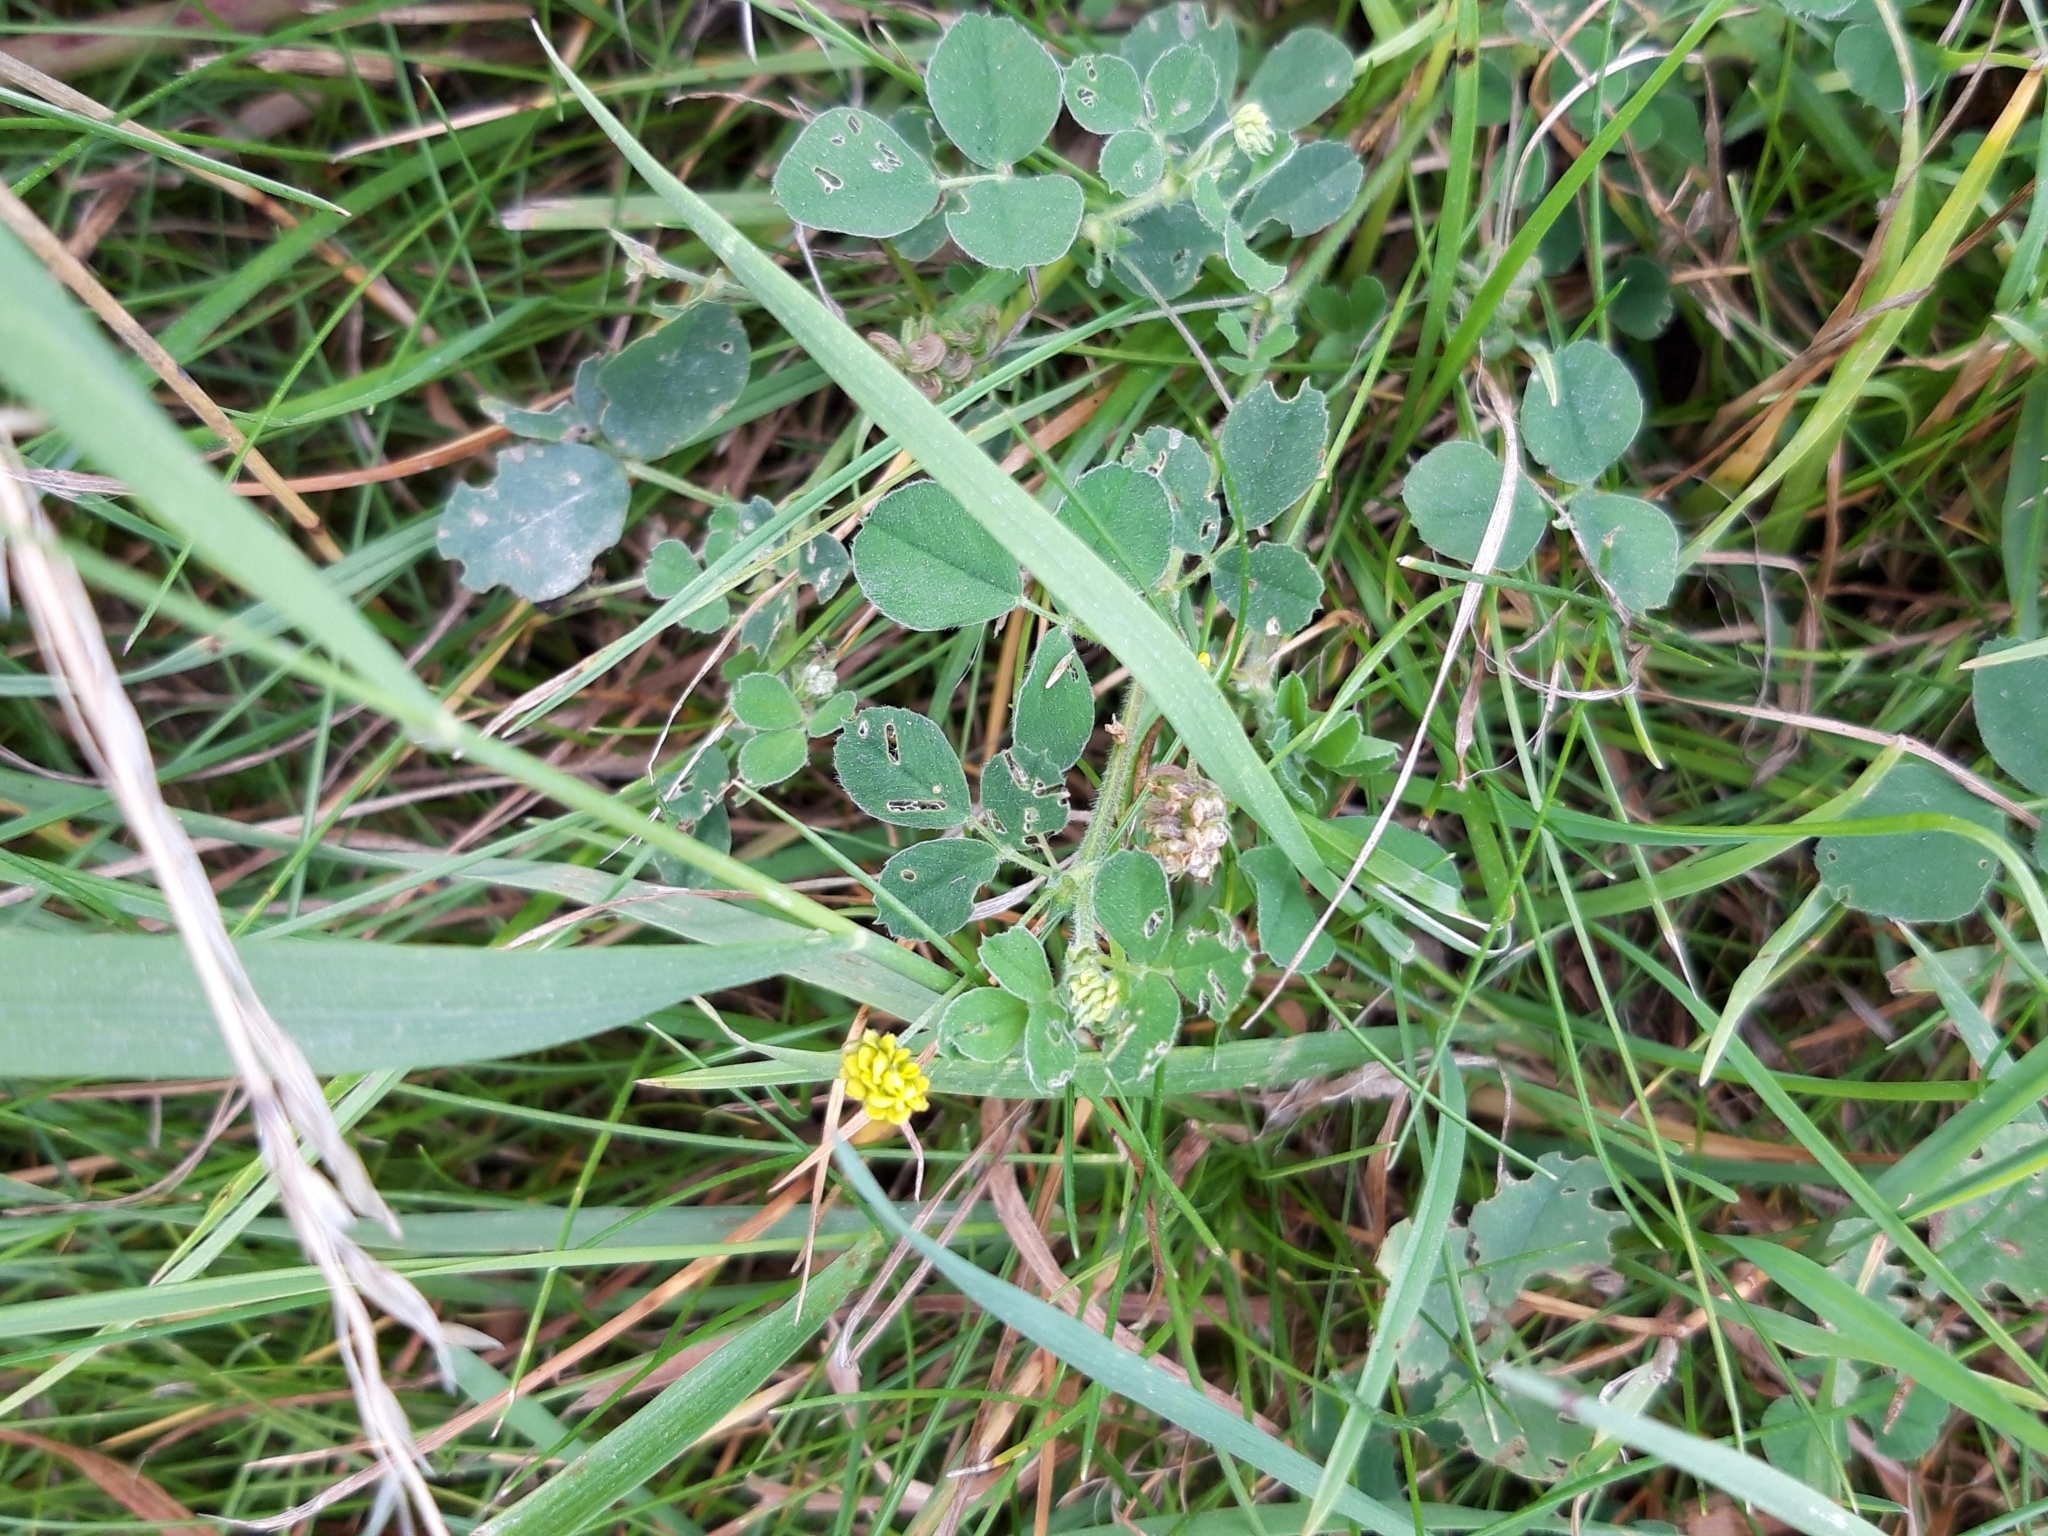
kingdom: Plantae
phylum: Tracheophyta
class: Magnoliopsida
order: Fabales
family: Fabaceae
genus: Medicago
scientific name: Medicago lupulina
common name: Black medick
